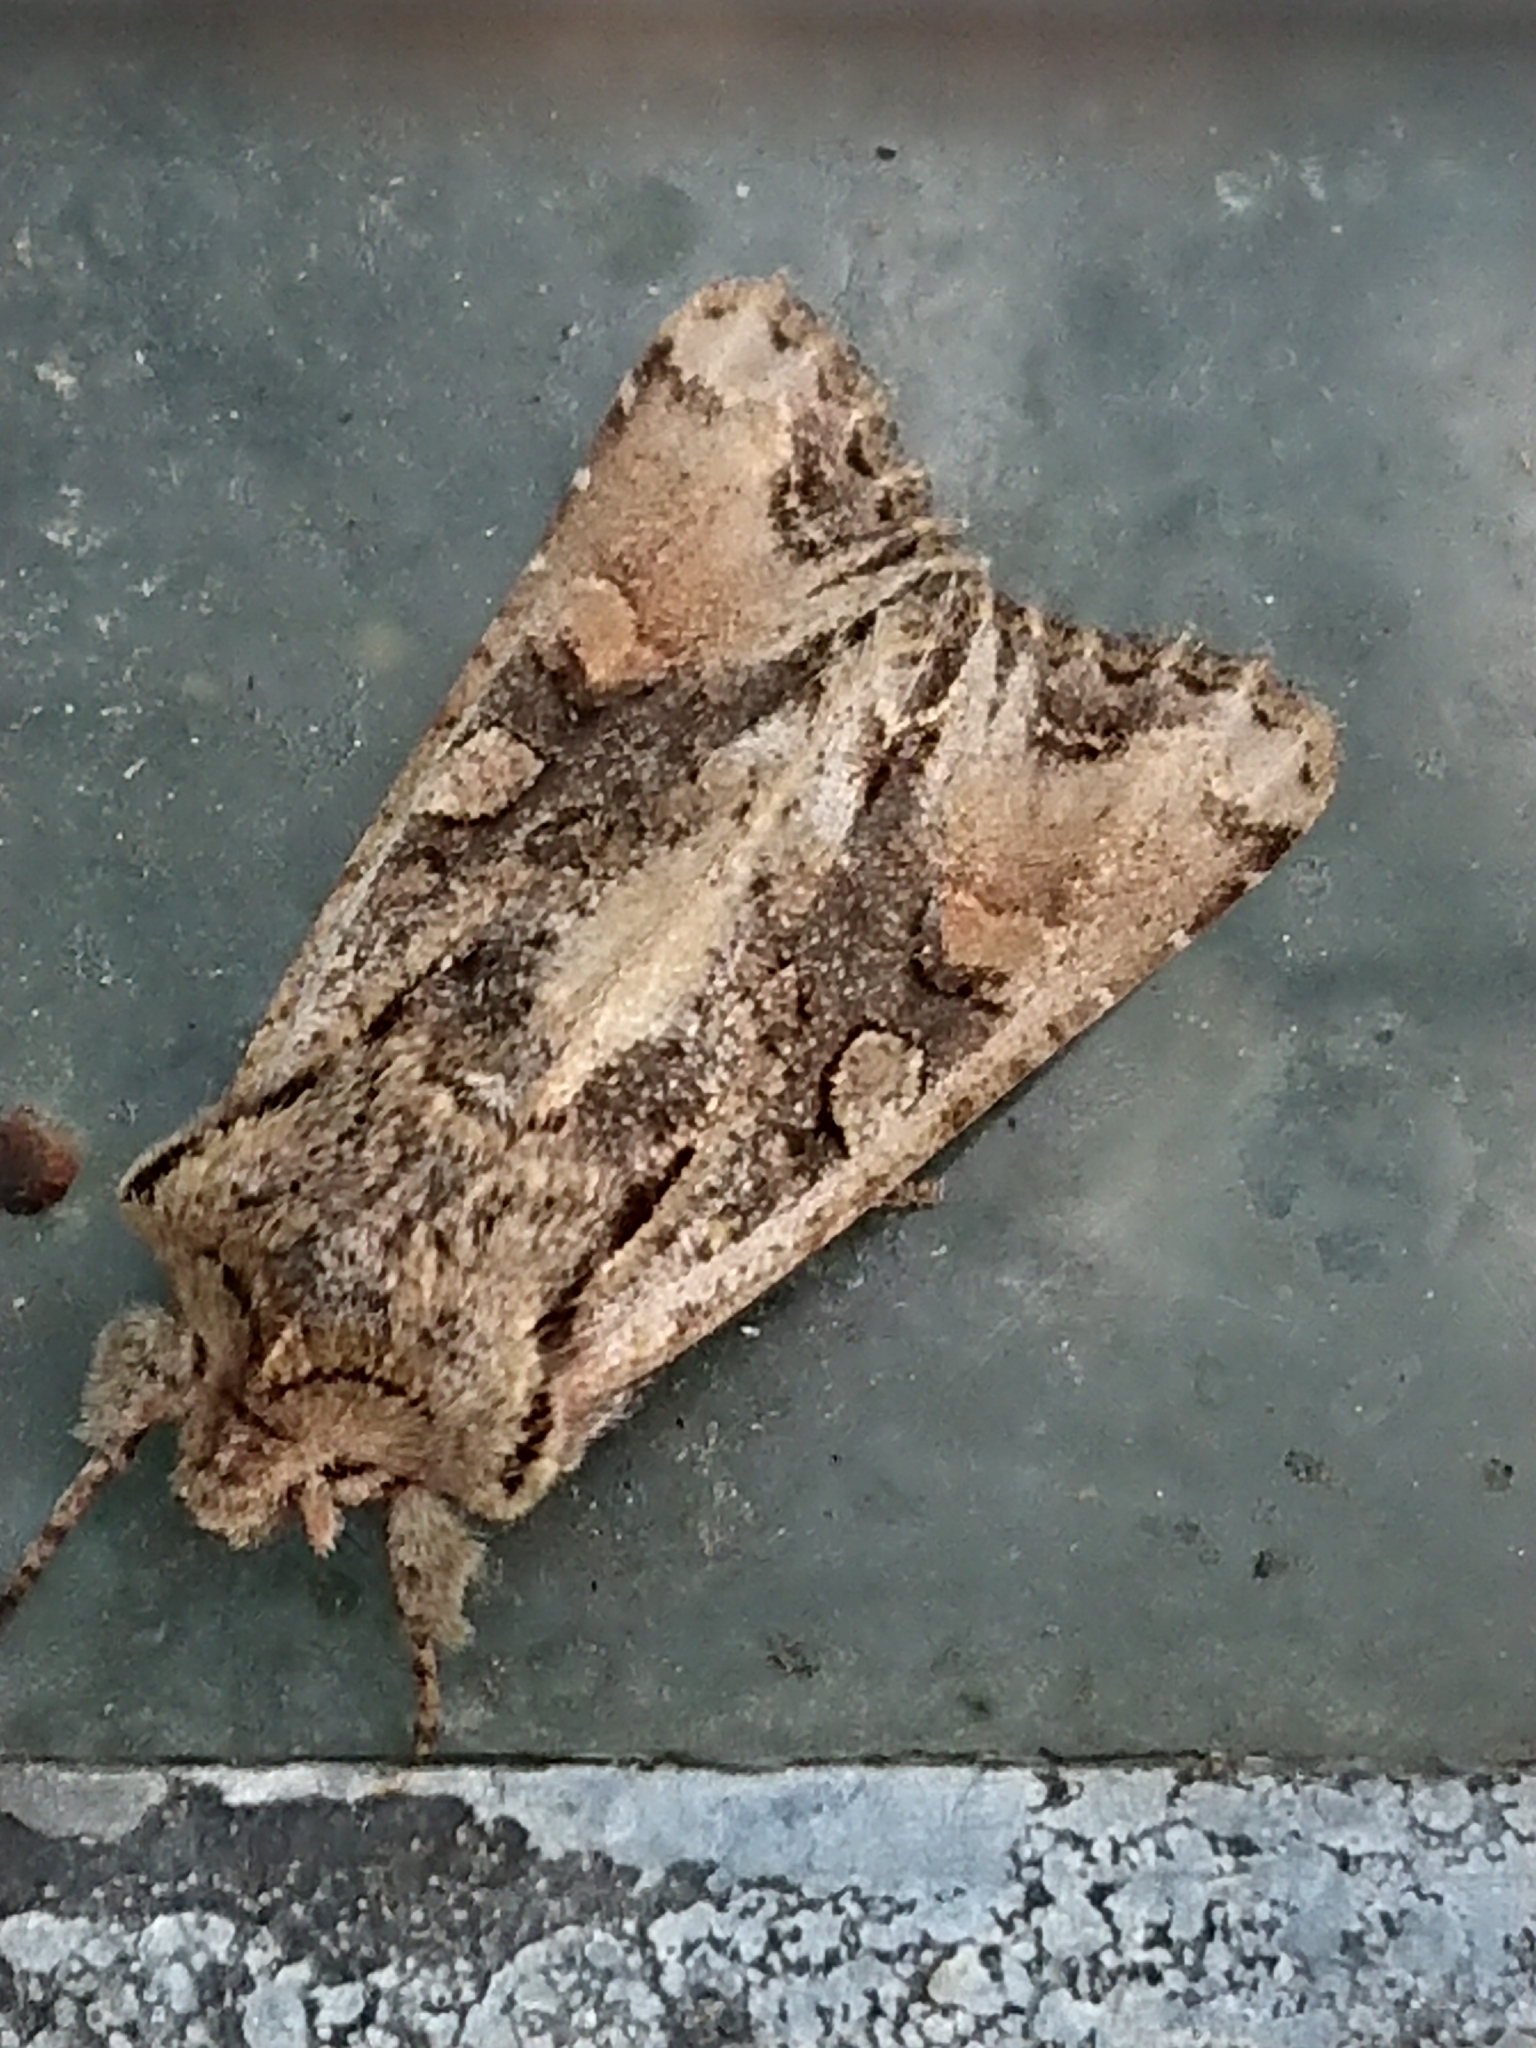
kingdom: Animalia
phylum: Arthropoda
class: Insecta
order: Lepidoptera
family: Noctuidae
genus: Ichneutica
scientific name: Ichneutica mutans
